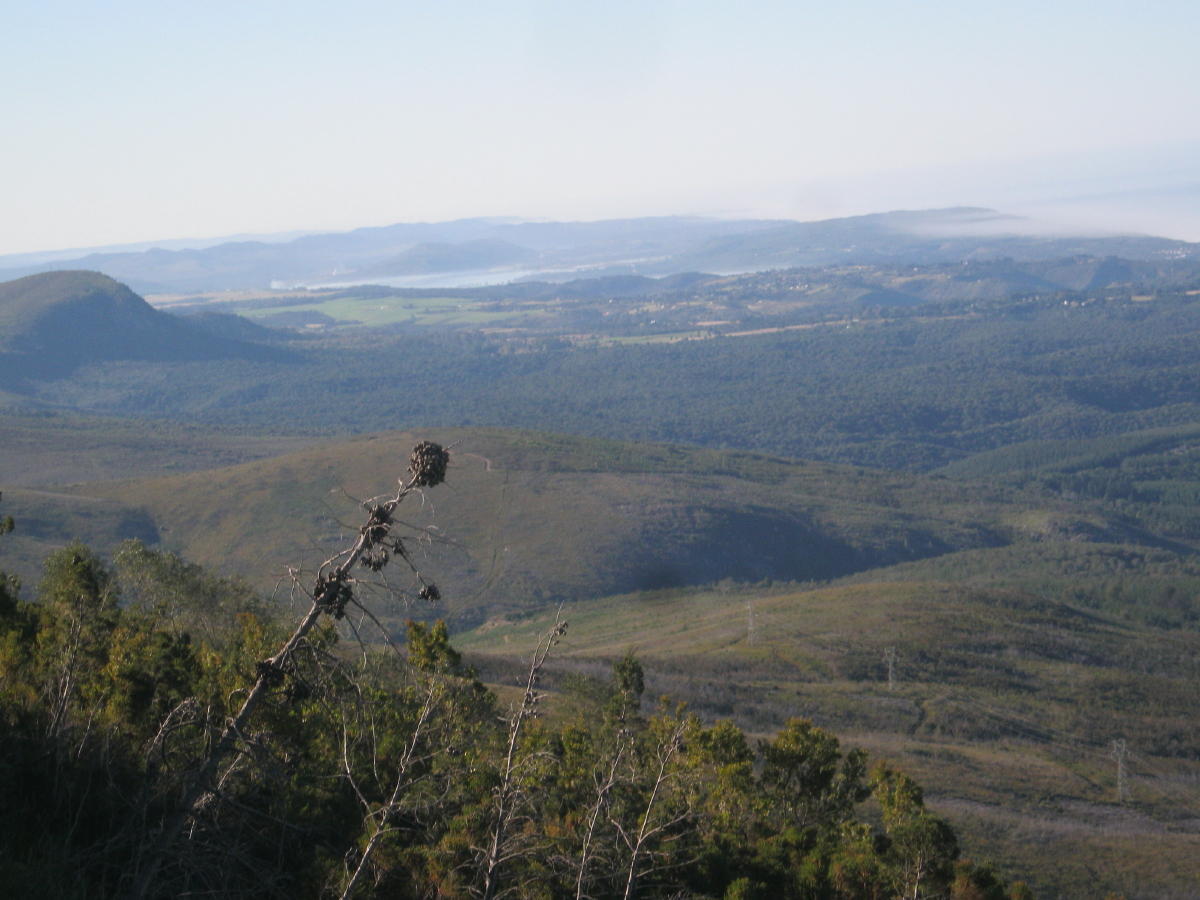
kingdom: Plantae
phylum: Tracheophyta
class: Pinopsida
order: Pinales
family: Cupressaceae
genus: Widdringtonia
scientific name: Widdringtonia nodiflora
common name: Cape cypress
